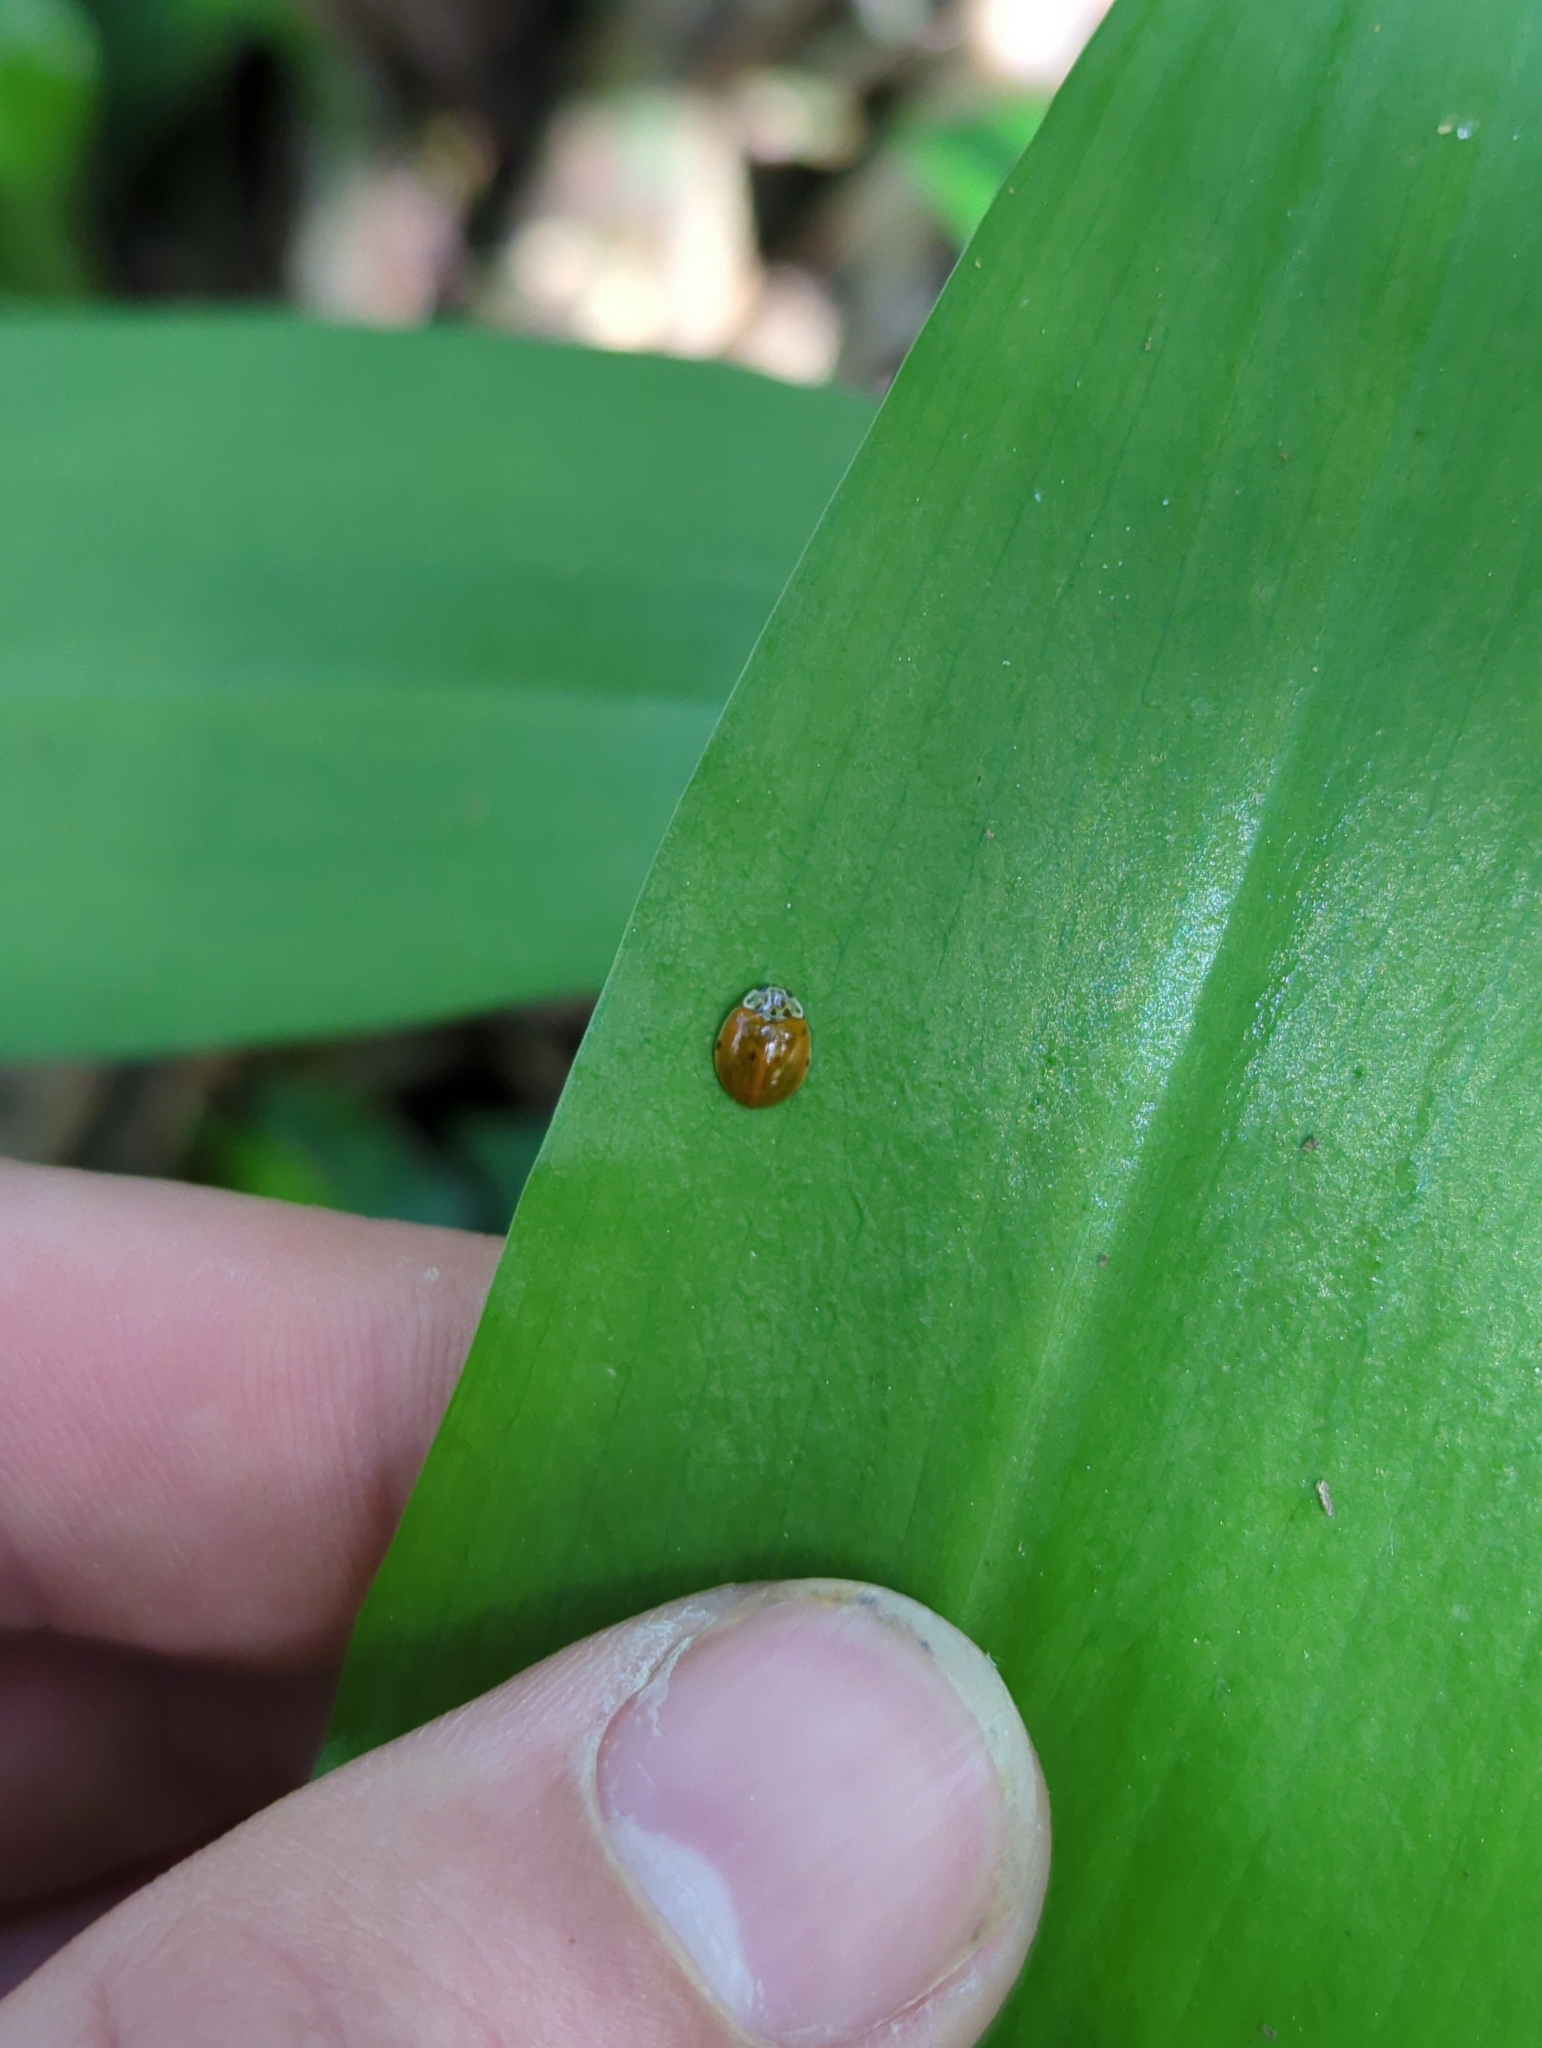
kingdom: Animalia
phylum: Arthropoda
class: Insecta
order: Coleoptera
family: Coccinellidae
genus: Adalia
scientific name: Adalia decempunctata
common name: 10-spot ladybird
